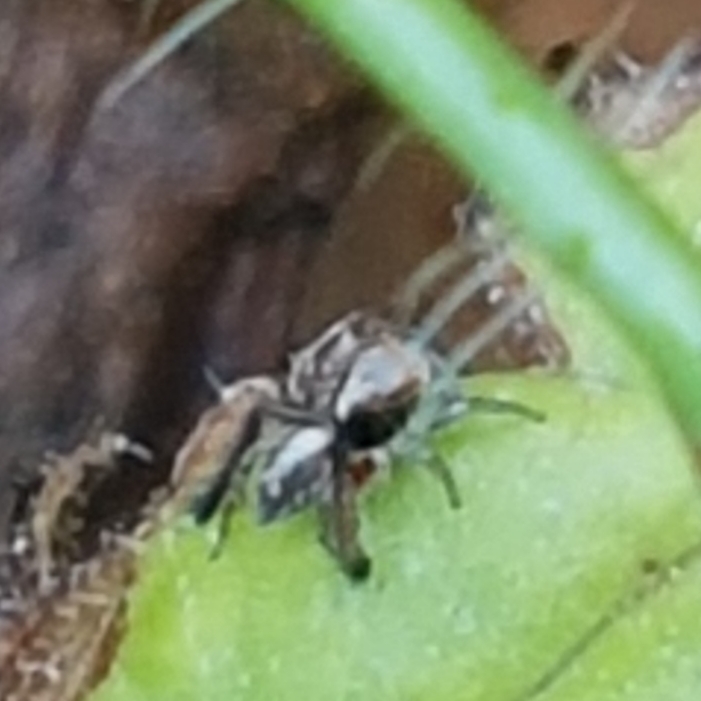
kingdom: Animalia
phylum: Arthropoda
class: Arachnida
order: Araneae
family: Salticidae
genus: Saitis
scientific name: Saitis barbipes
